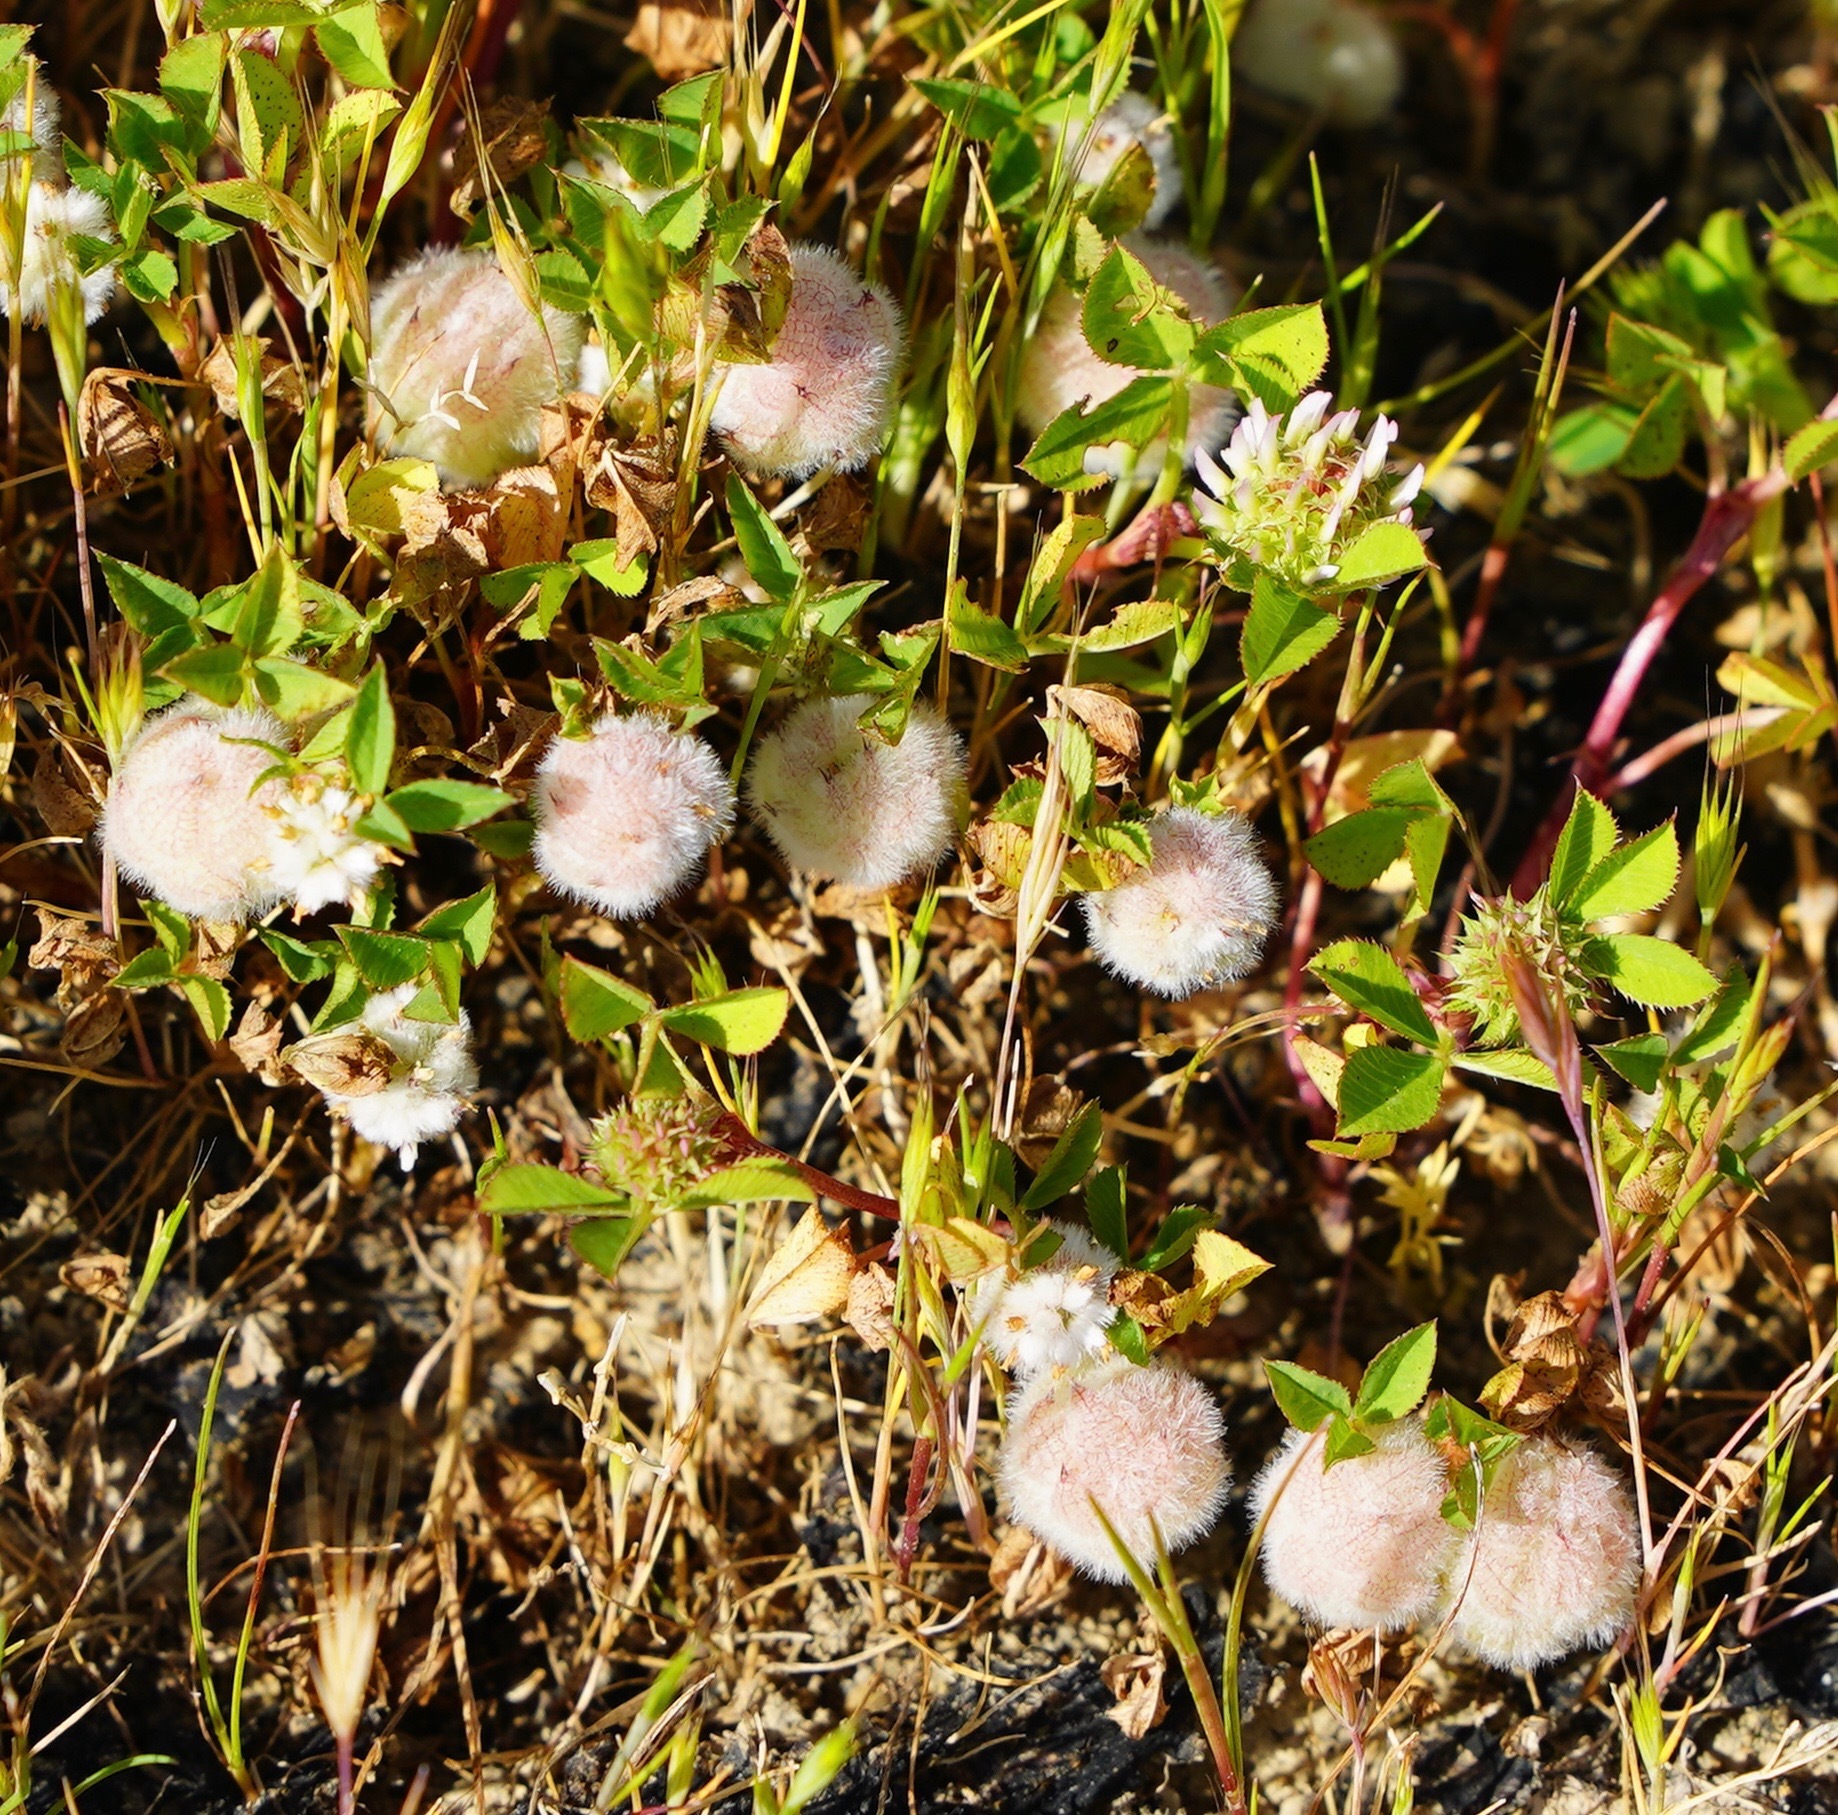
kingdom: Plantae
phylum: Tracheophyta
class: Magnoliopsida
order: Fabales
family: Fabaceae
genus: Trifolium
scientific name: Trifolium tomentosum
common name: Woolly clover
